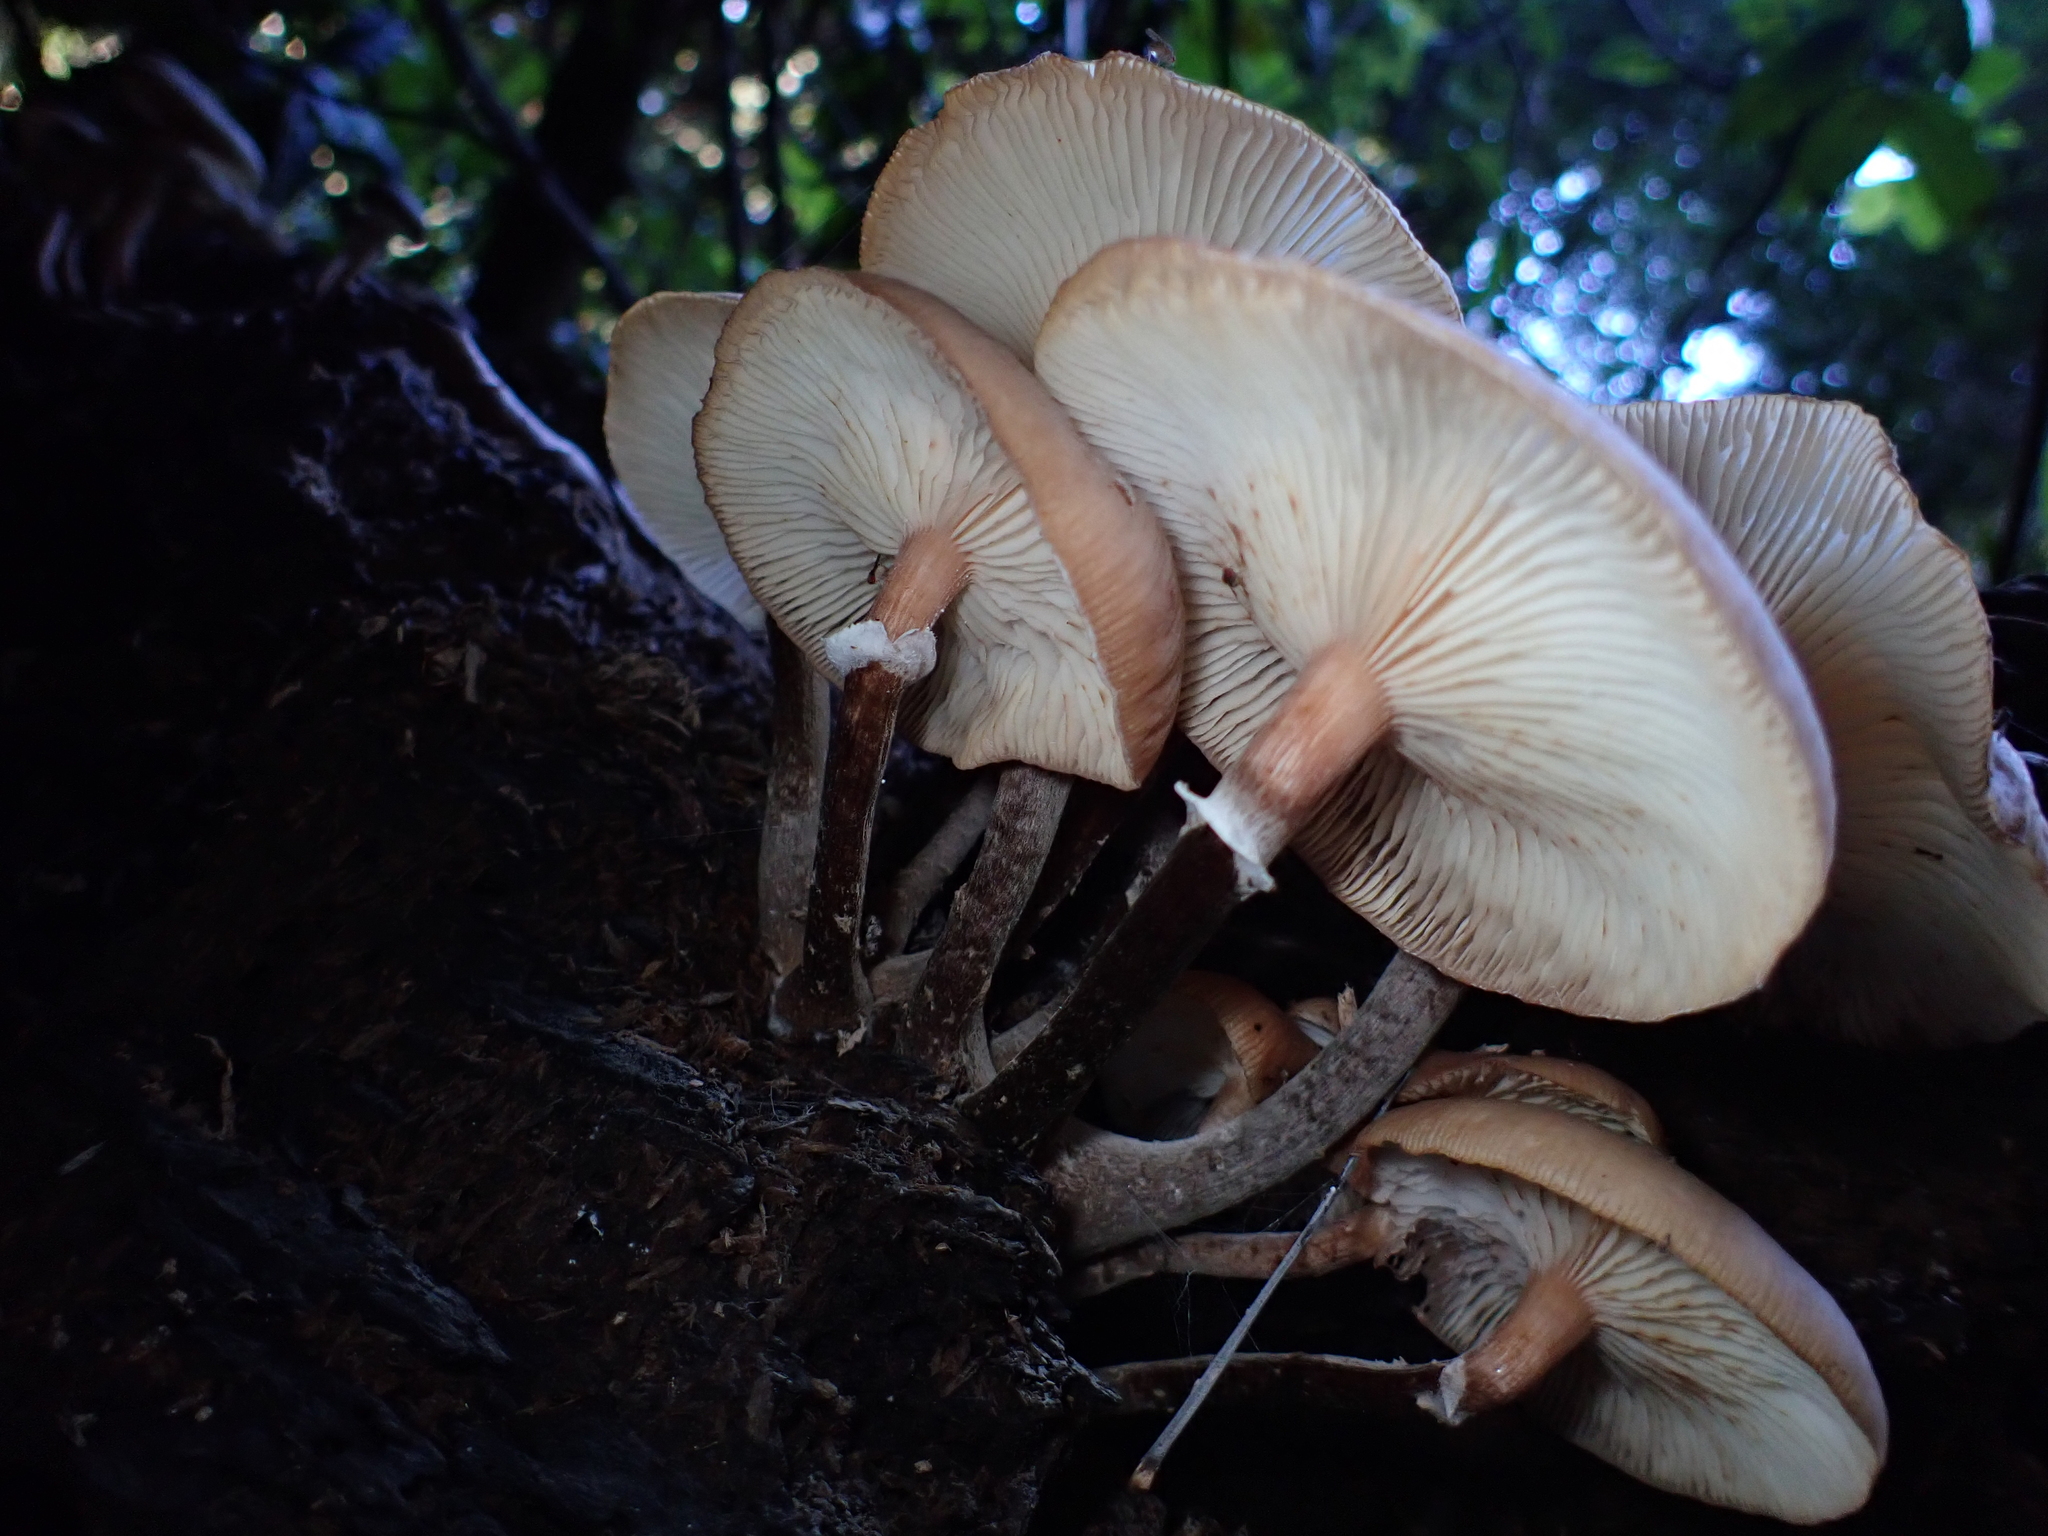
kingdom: Fungi
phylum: Basidiomycota
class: Agaricomycetes
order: Agaricales
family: Physalacriaceae
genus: Armillaria
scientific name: Armillaria novae-zelandiae
